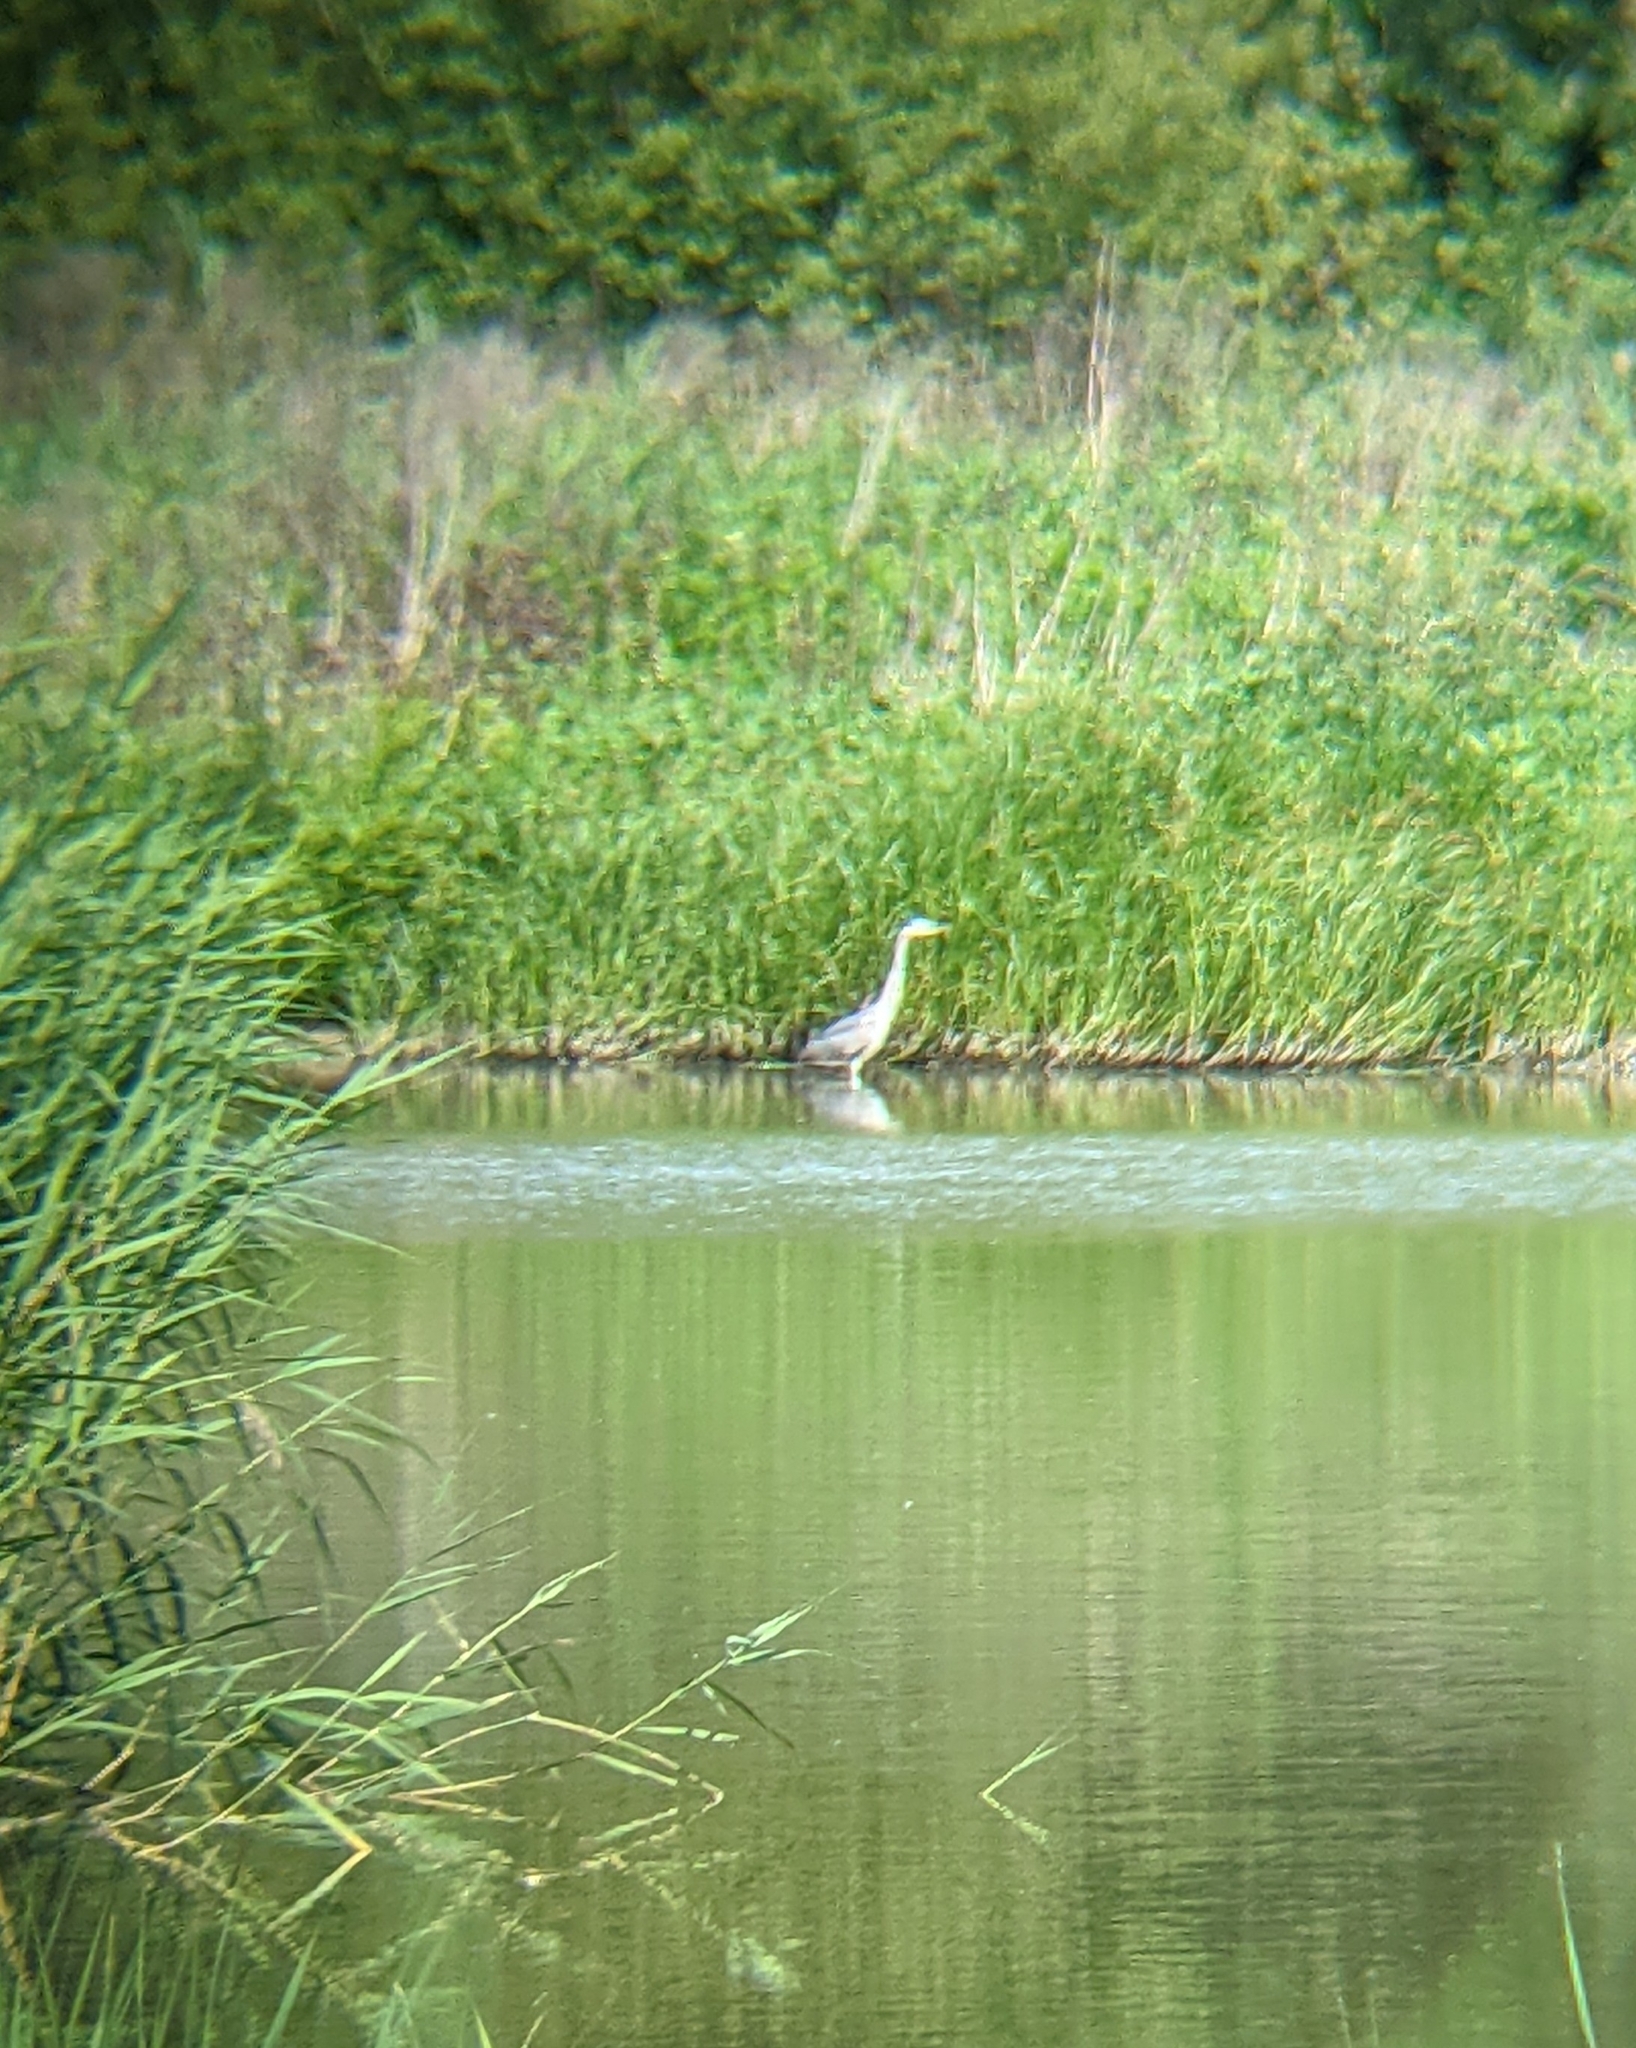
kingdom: Animalia
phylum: Chordata
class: Aves
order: Pelecaniformes
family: Ardeidae
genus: Ardea
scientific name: Ardea cinerea
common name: Grey heron
